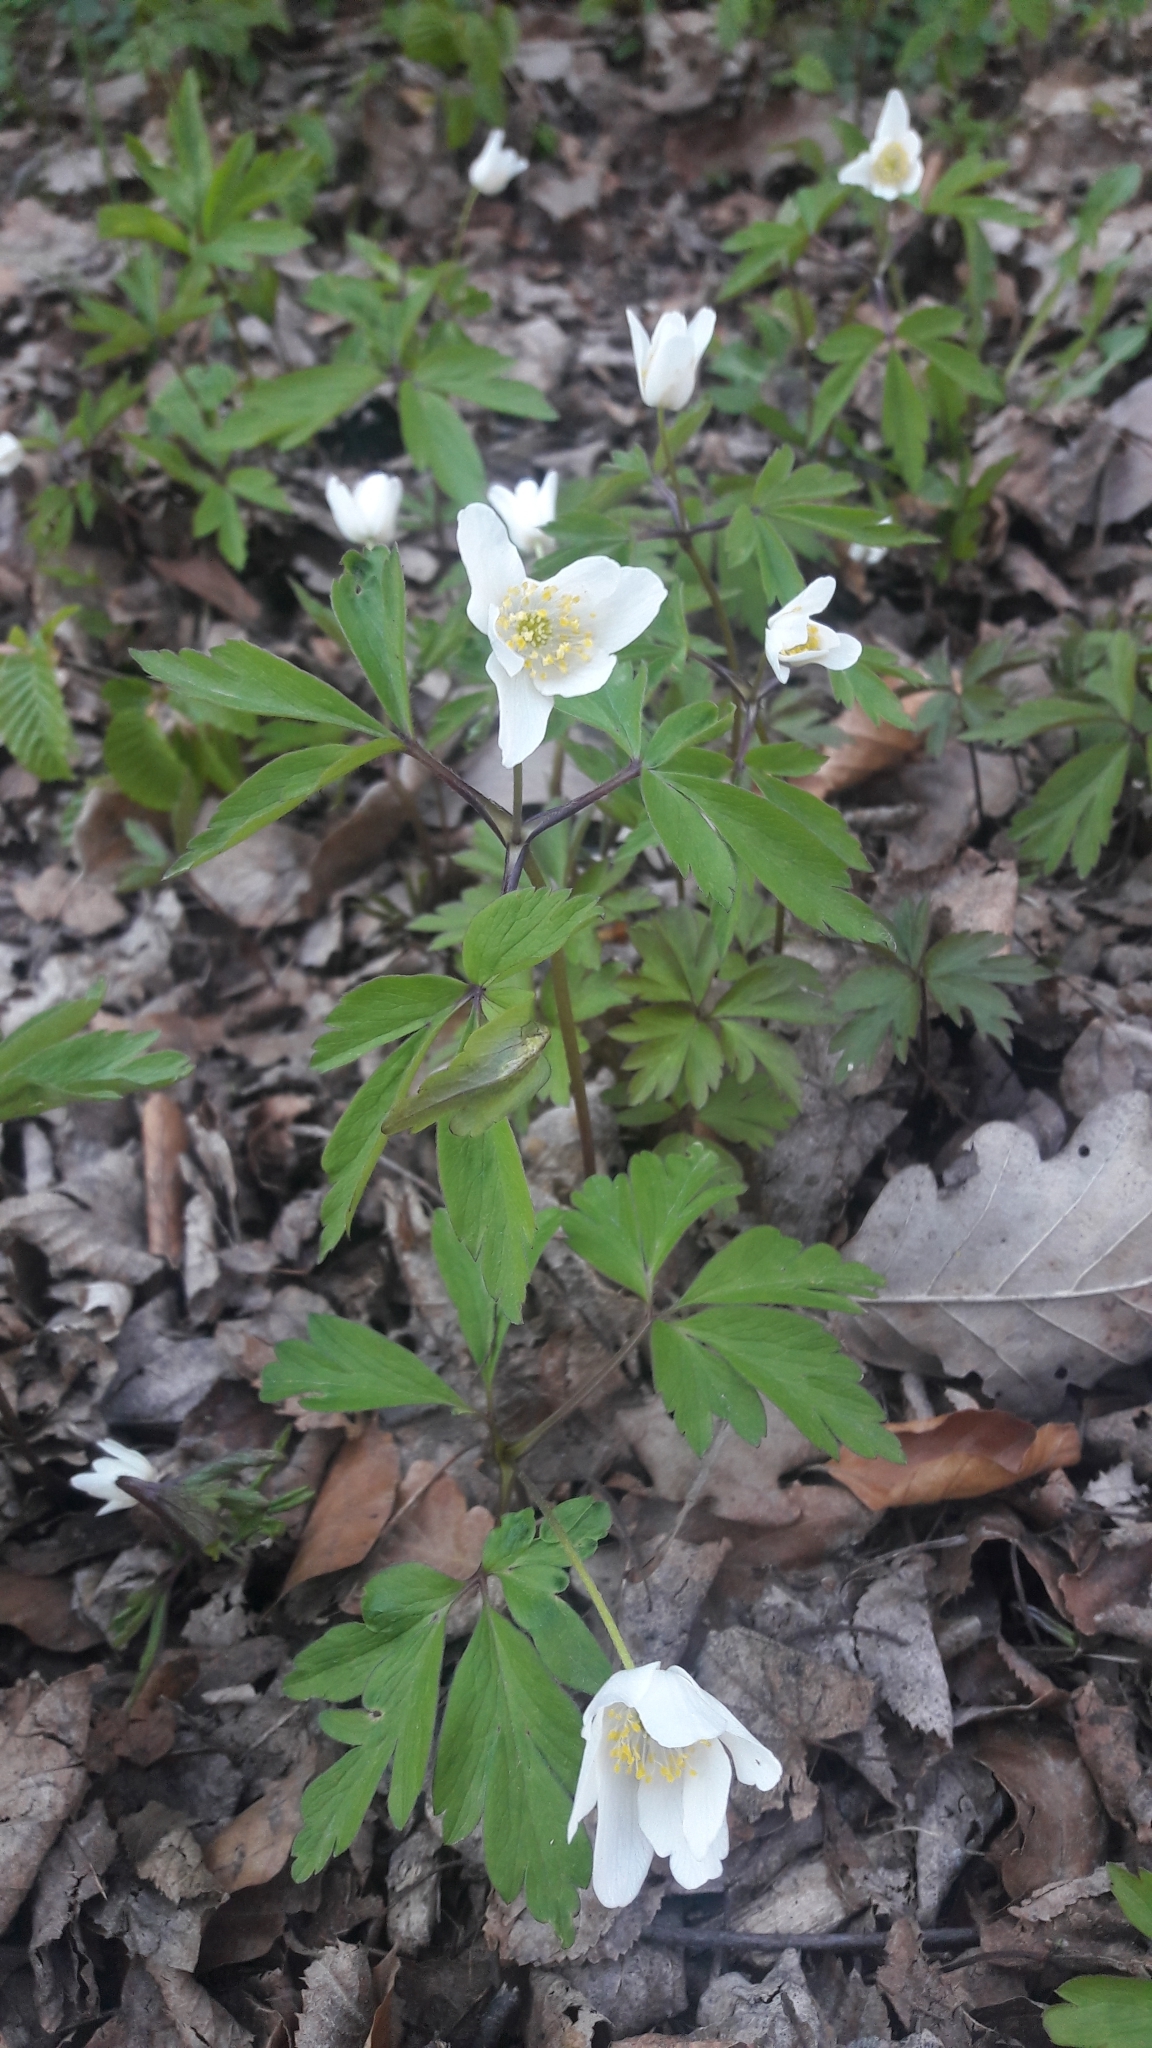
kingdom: Plantae
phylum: Tracheophyta
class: Magnoliopsida
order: Ranunculales
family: Ranunculaceae
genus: Anemone
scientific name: Anemone nemorosa
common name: Wood anemone
